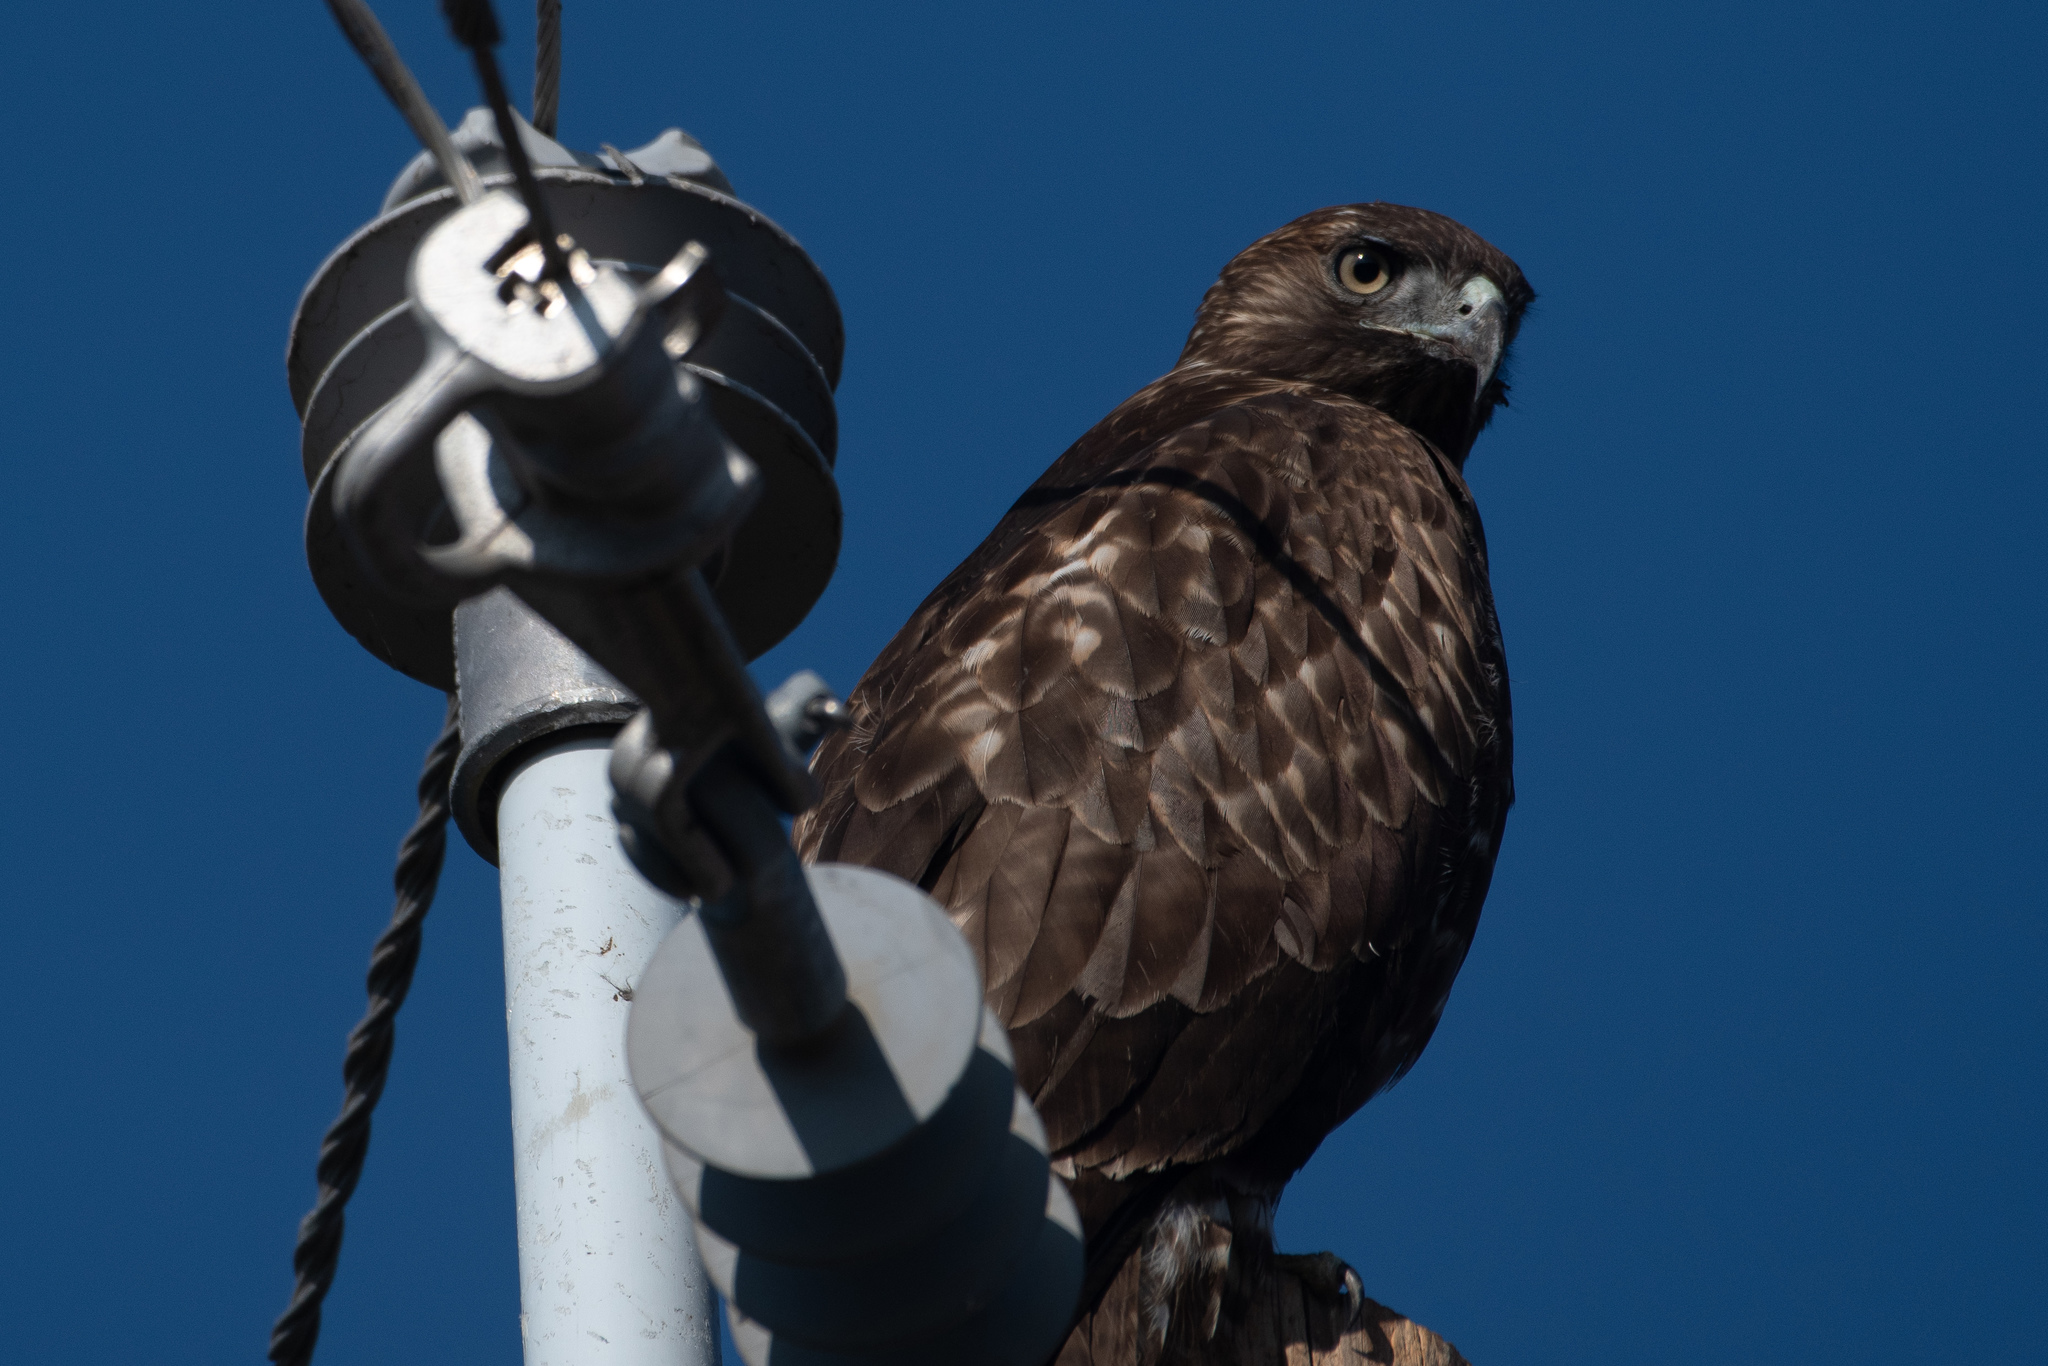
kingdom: Animalia
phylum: Chordata
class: Aves
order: Accipitriformes
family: Accipitridae
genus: Buteo
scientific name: Buteo jamaicensis
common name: Red-tailed hawk
